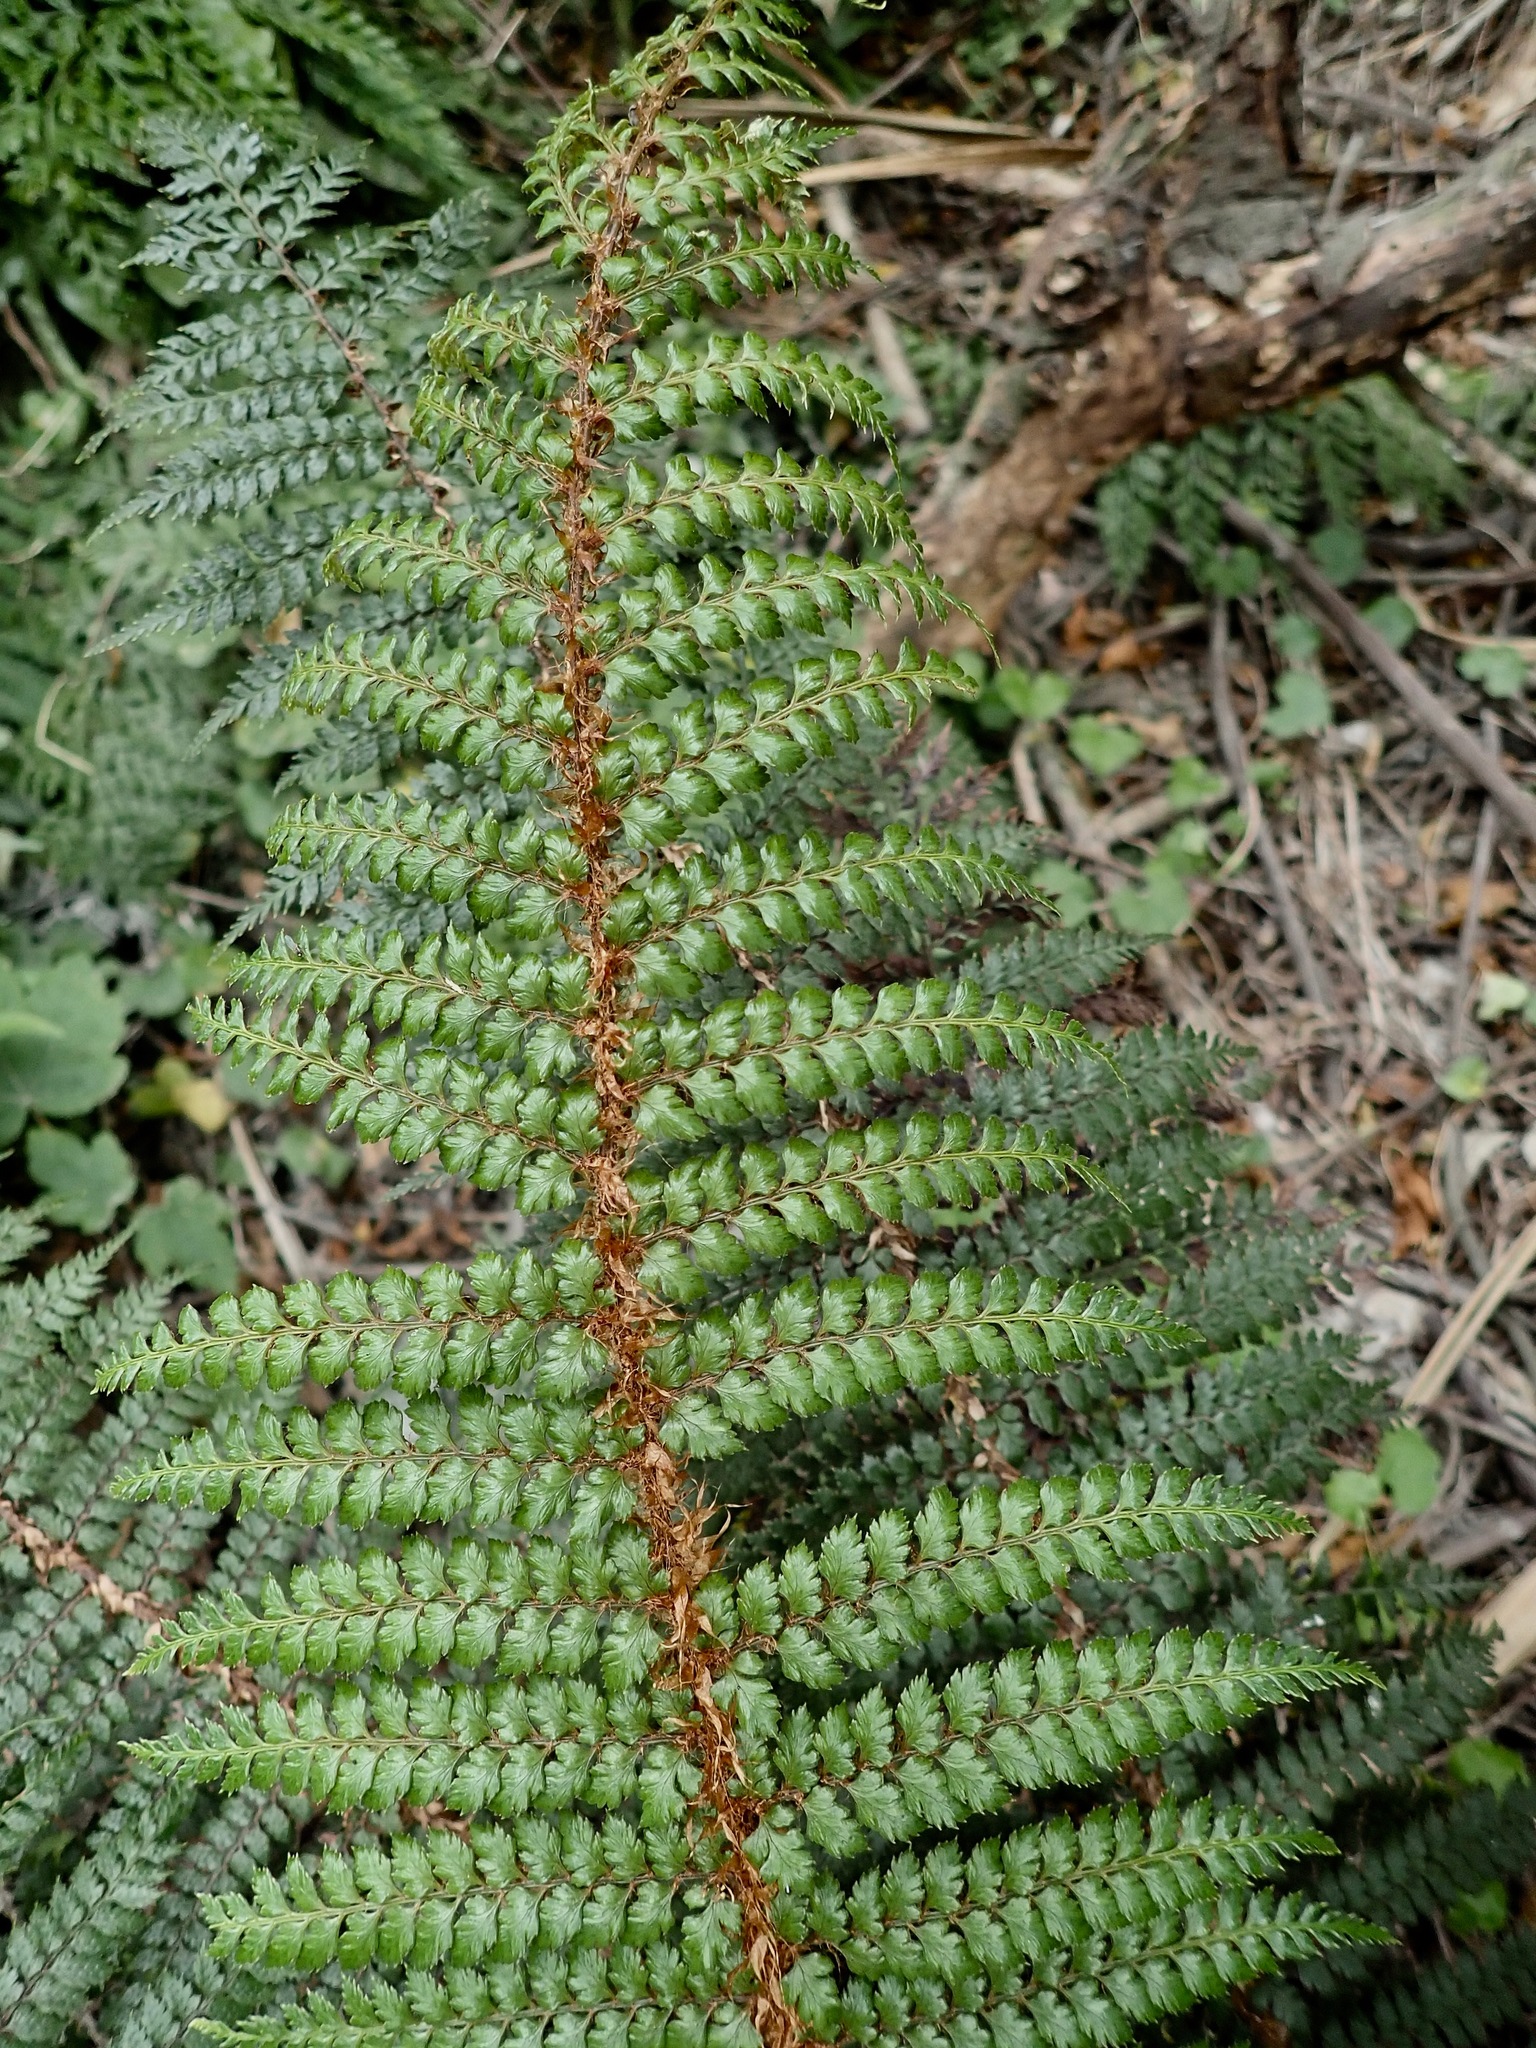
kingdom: Plantae
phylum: Tracheophyta
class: Polypodiopsida
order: Polypodiales
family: Dryopteridaceae
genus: Polystichum
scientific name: Polystichum vestitum
